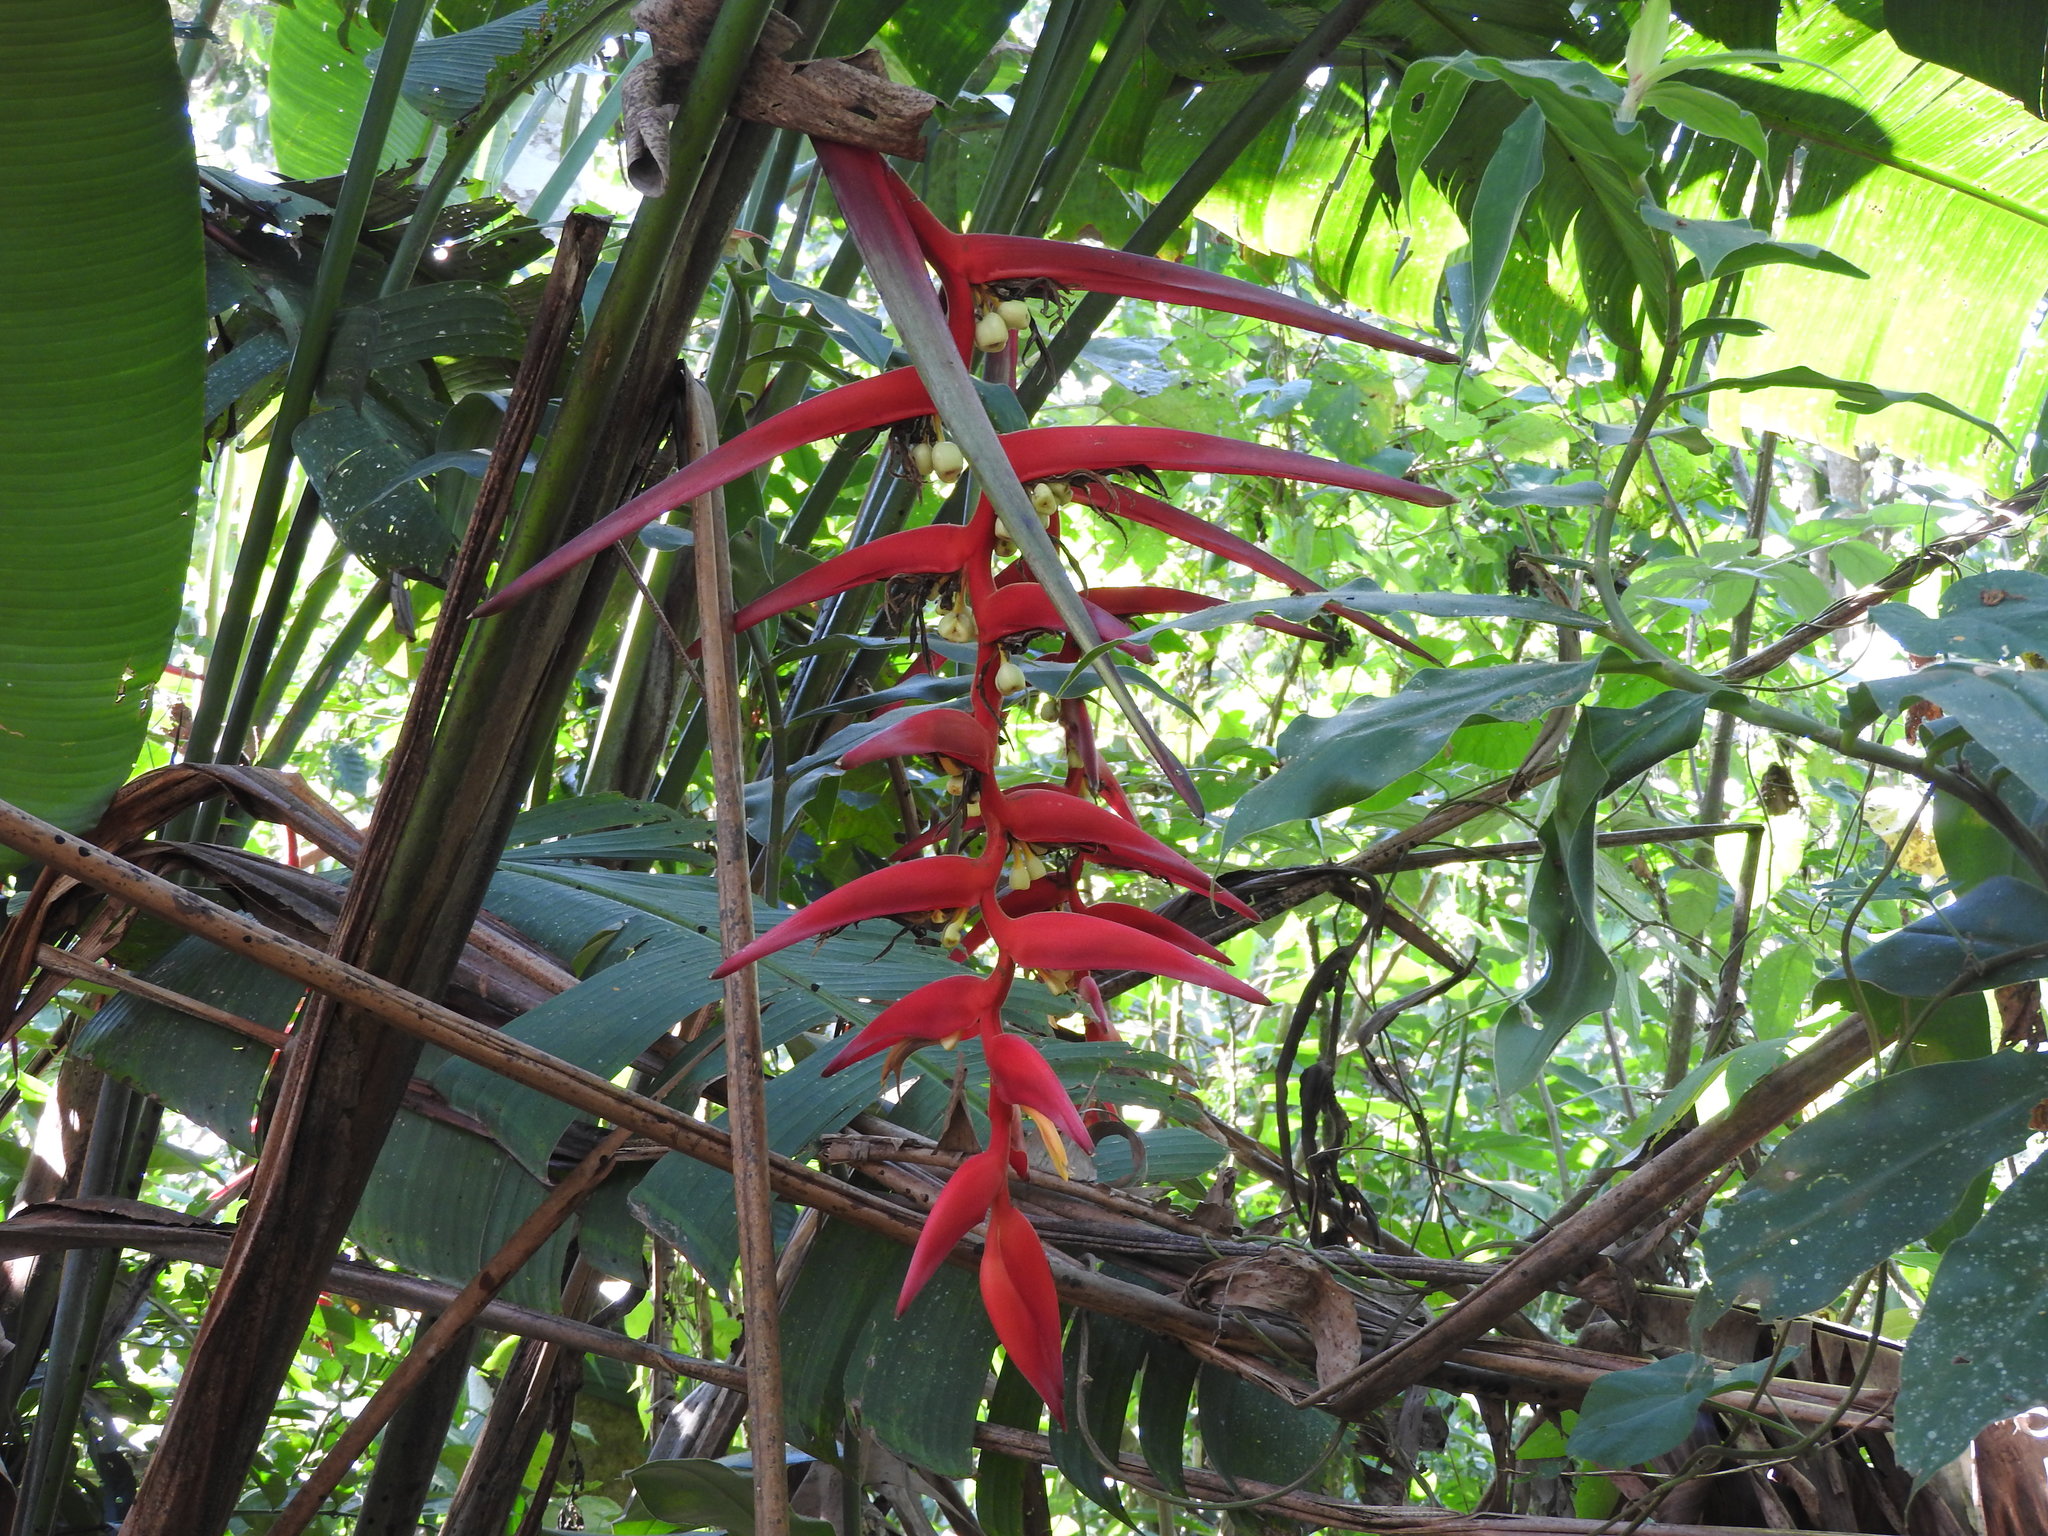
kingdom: Plantae
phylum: Tracheophyta
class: Liliopsida
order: Zingiberales
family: Heliconiaceae
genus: Heliconia
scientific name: Heliconia collinsiana
